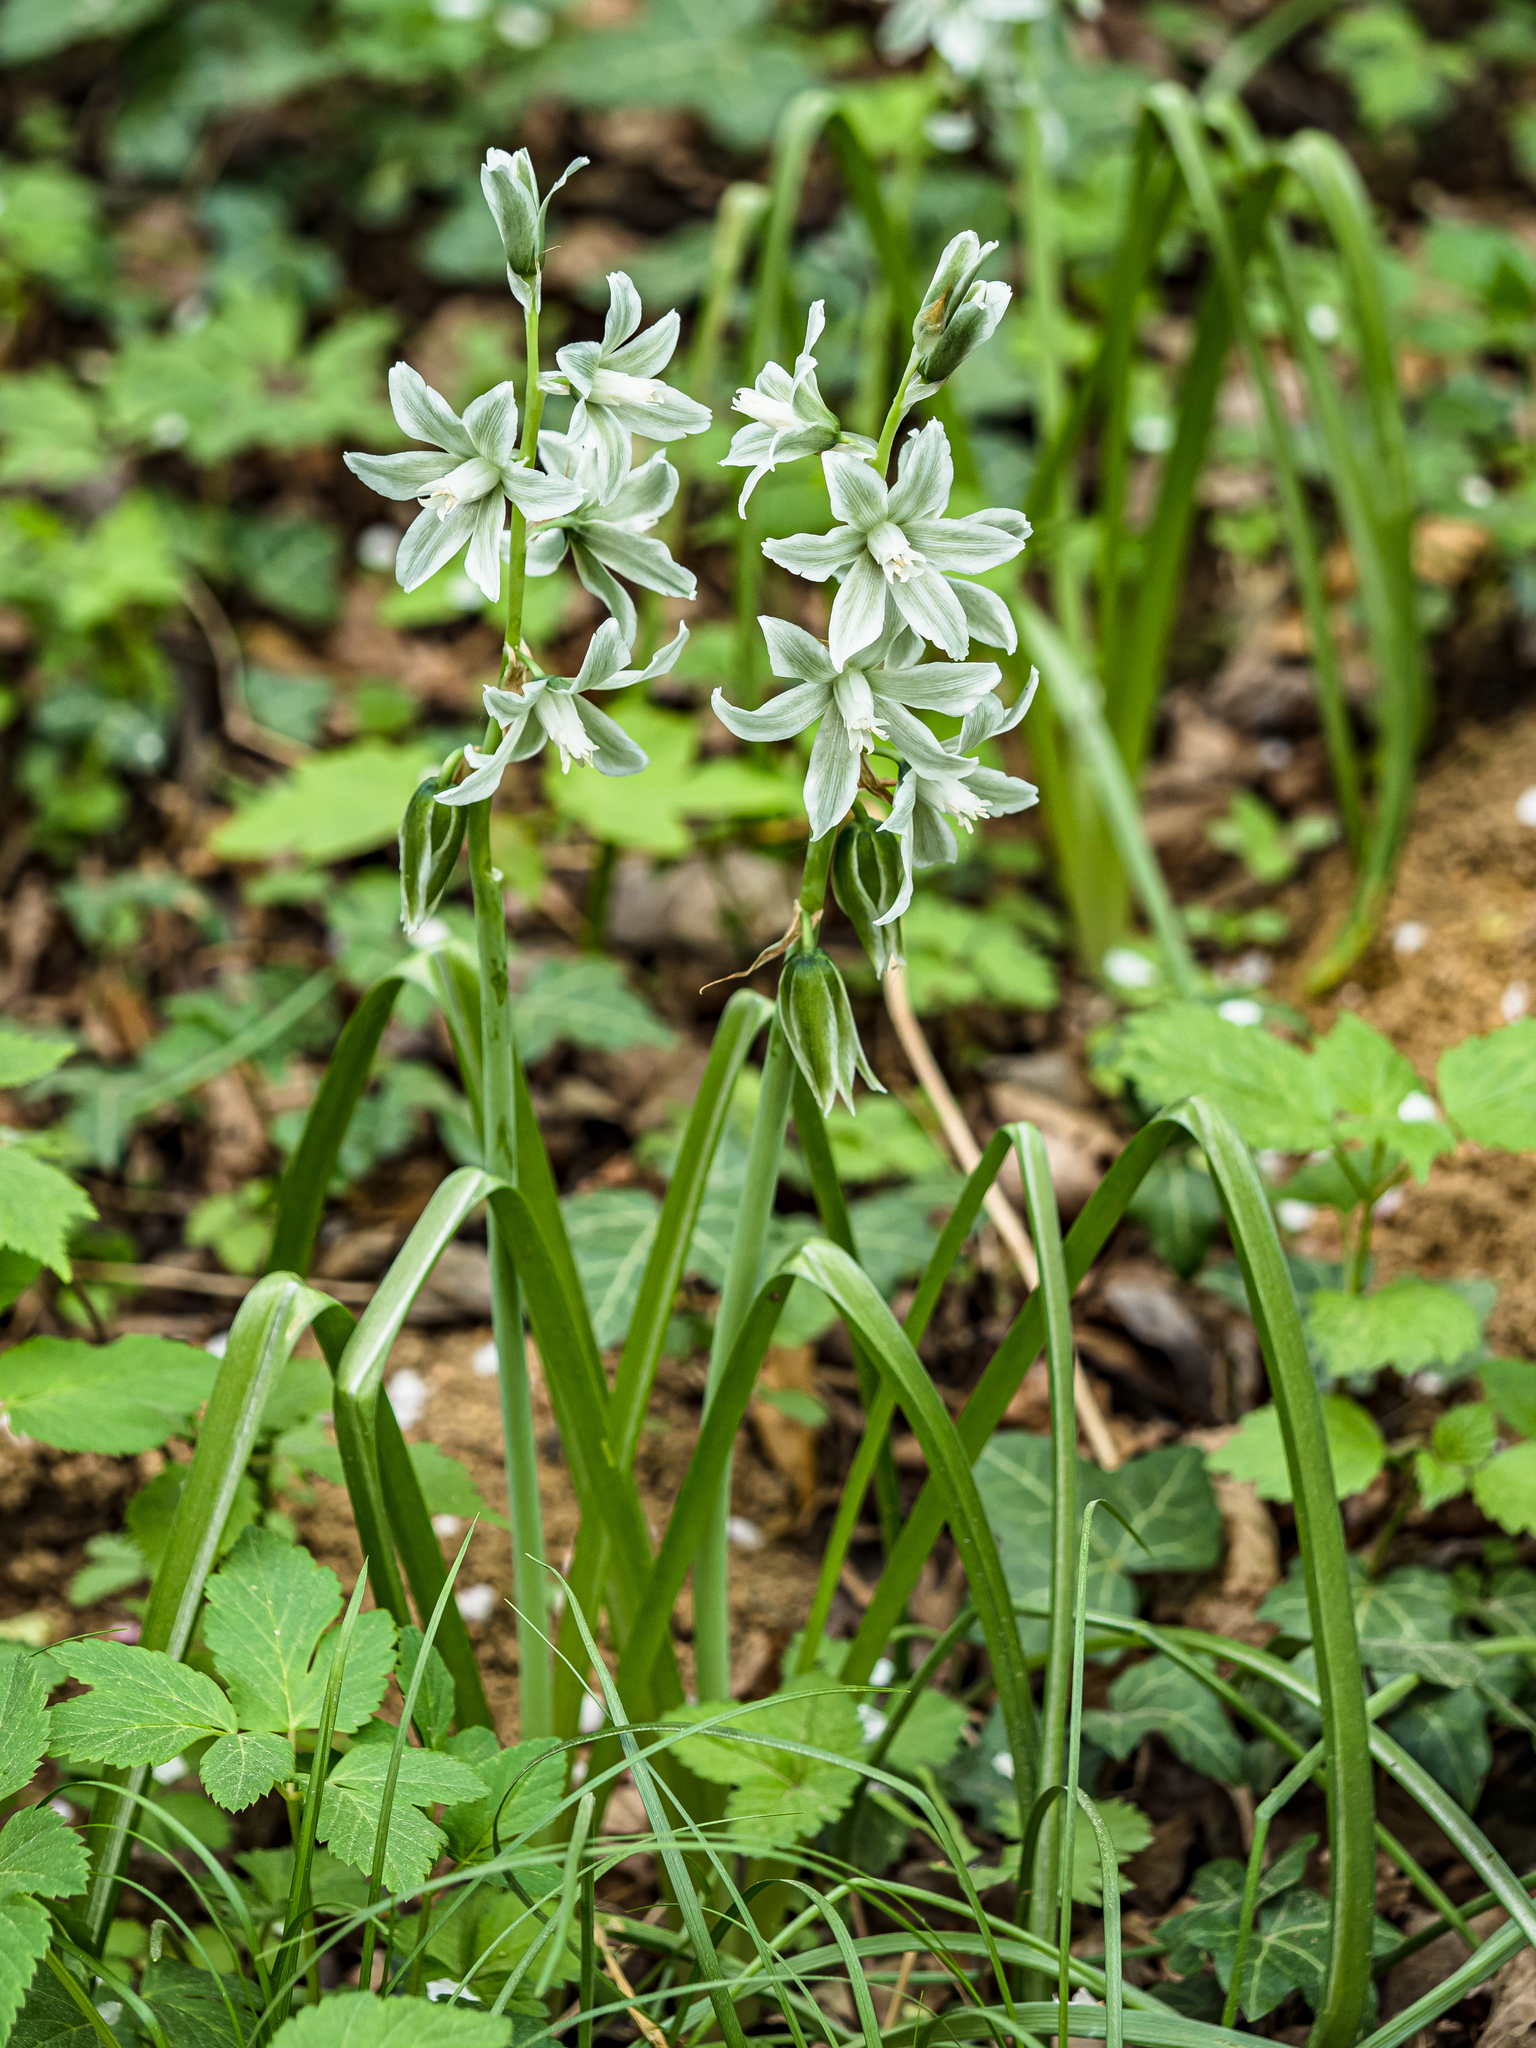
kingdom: Plantae
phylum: Tracheophyta
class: Liliopsida
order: Asparagales
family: Asparagaceae
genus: Ornithogalum
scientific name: Ornithogalum boucheanum
